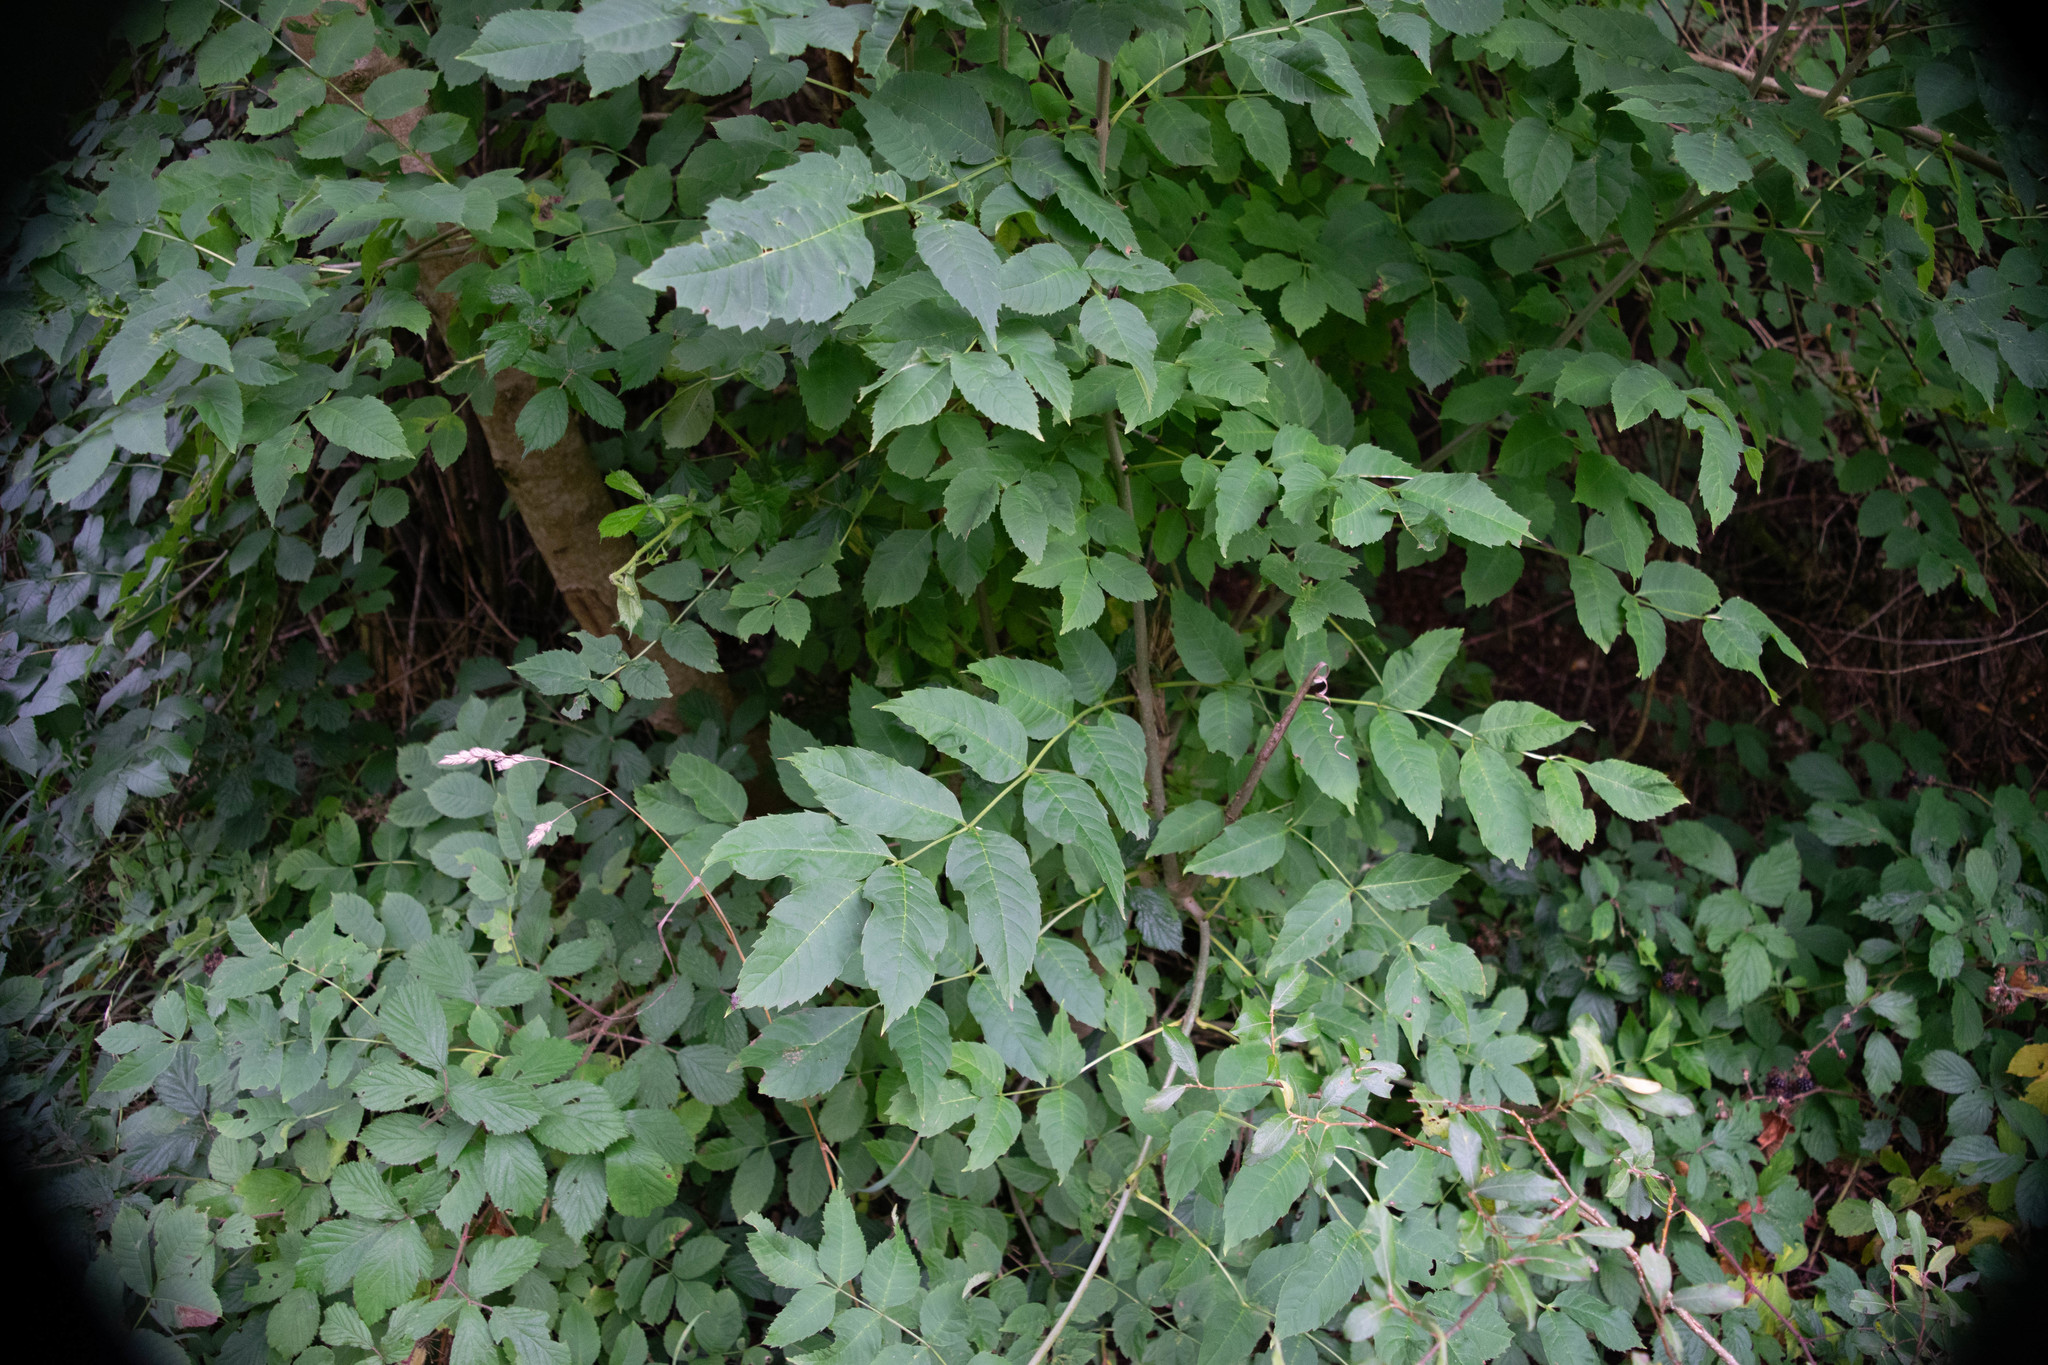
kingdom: Plantae
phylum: Tracheophyta
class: Magnoliopsida
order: Lamiales
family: Oleaceae
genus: Fraxinus
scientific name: Fraxinus excelsior
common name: European ash
